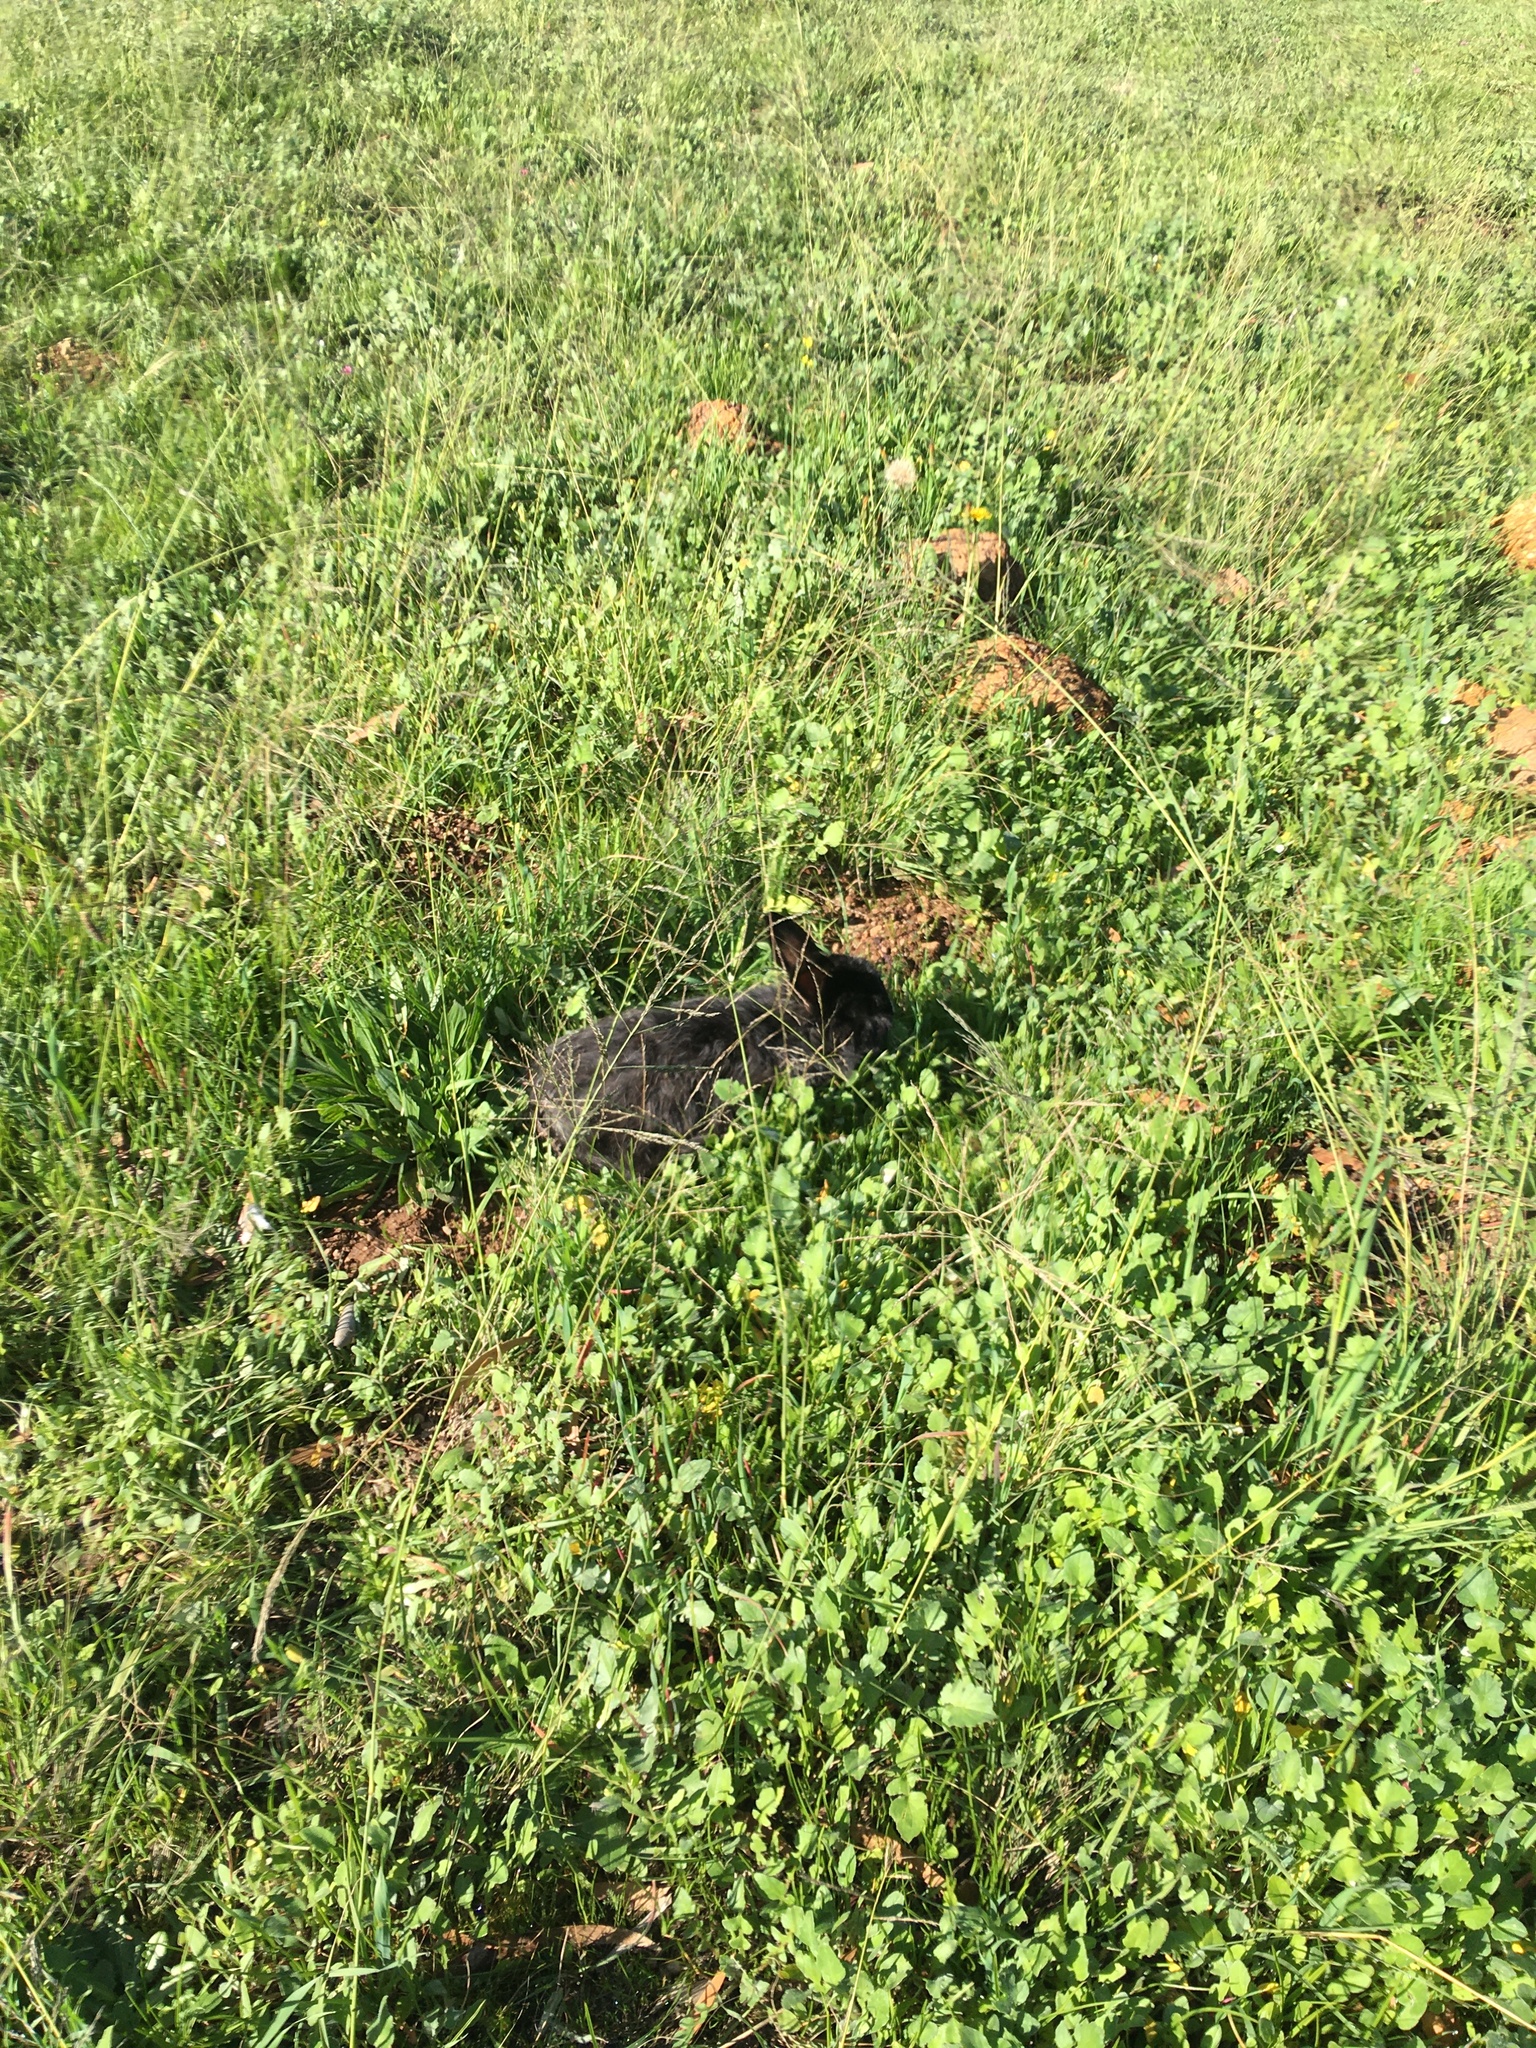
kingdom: Animalia
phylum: Chordata
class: Mammalia
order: Lagomorpha
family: Leporidae
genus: Oryctolagus
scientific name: Oryctolagus cuniculus
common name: European rabbit
